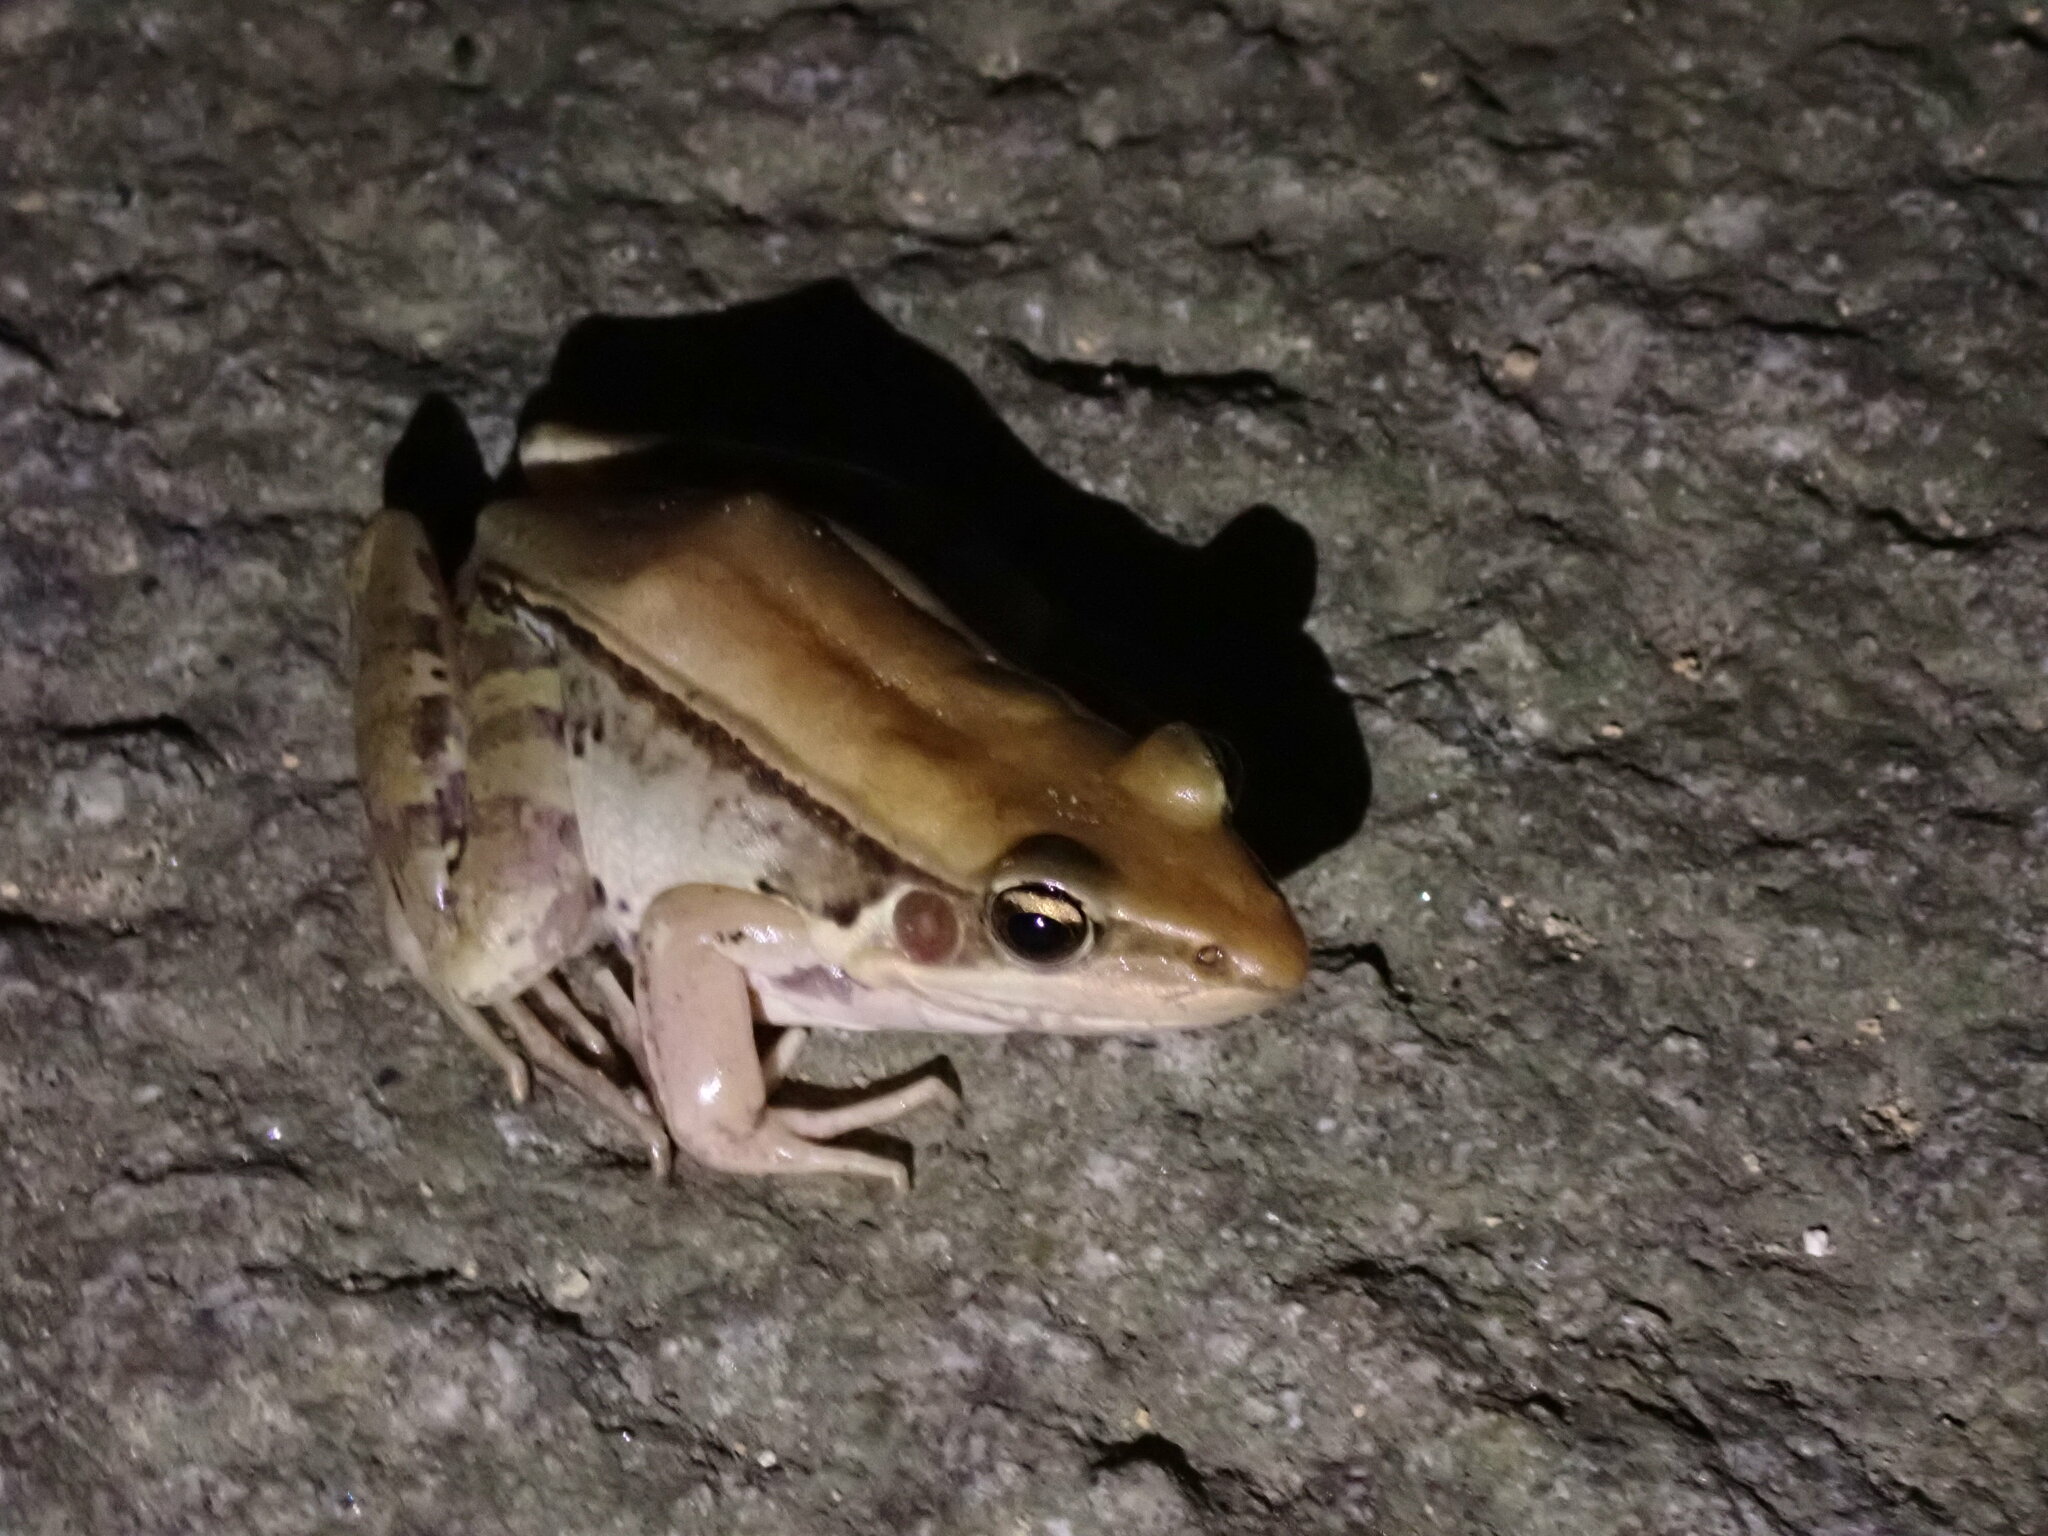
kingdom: Animalia
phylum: Chordata
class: Amphibia
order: Anura
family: Ranidae
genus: Sylvirana
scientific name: Sylvirana guentheri
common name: Guenther's amoy frog
